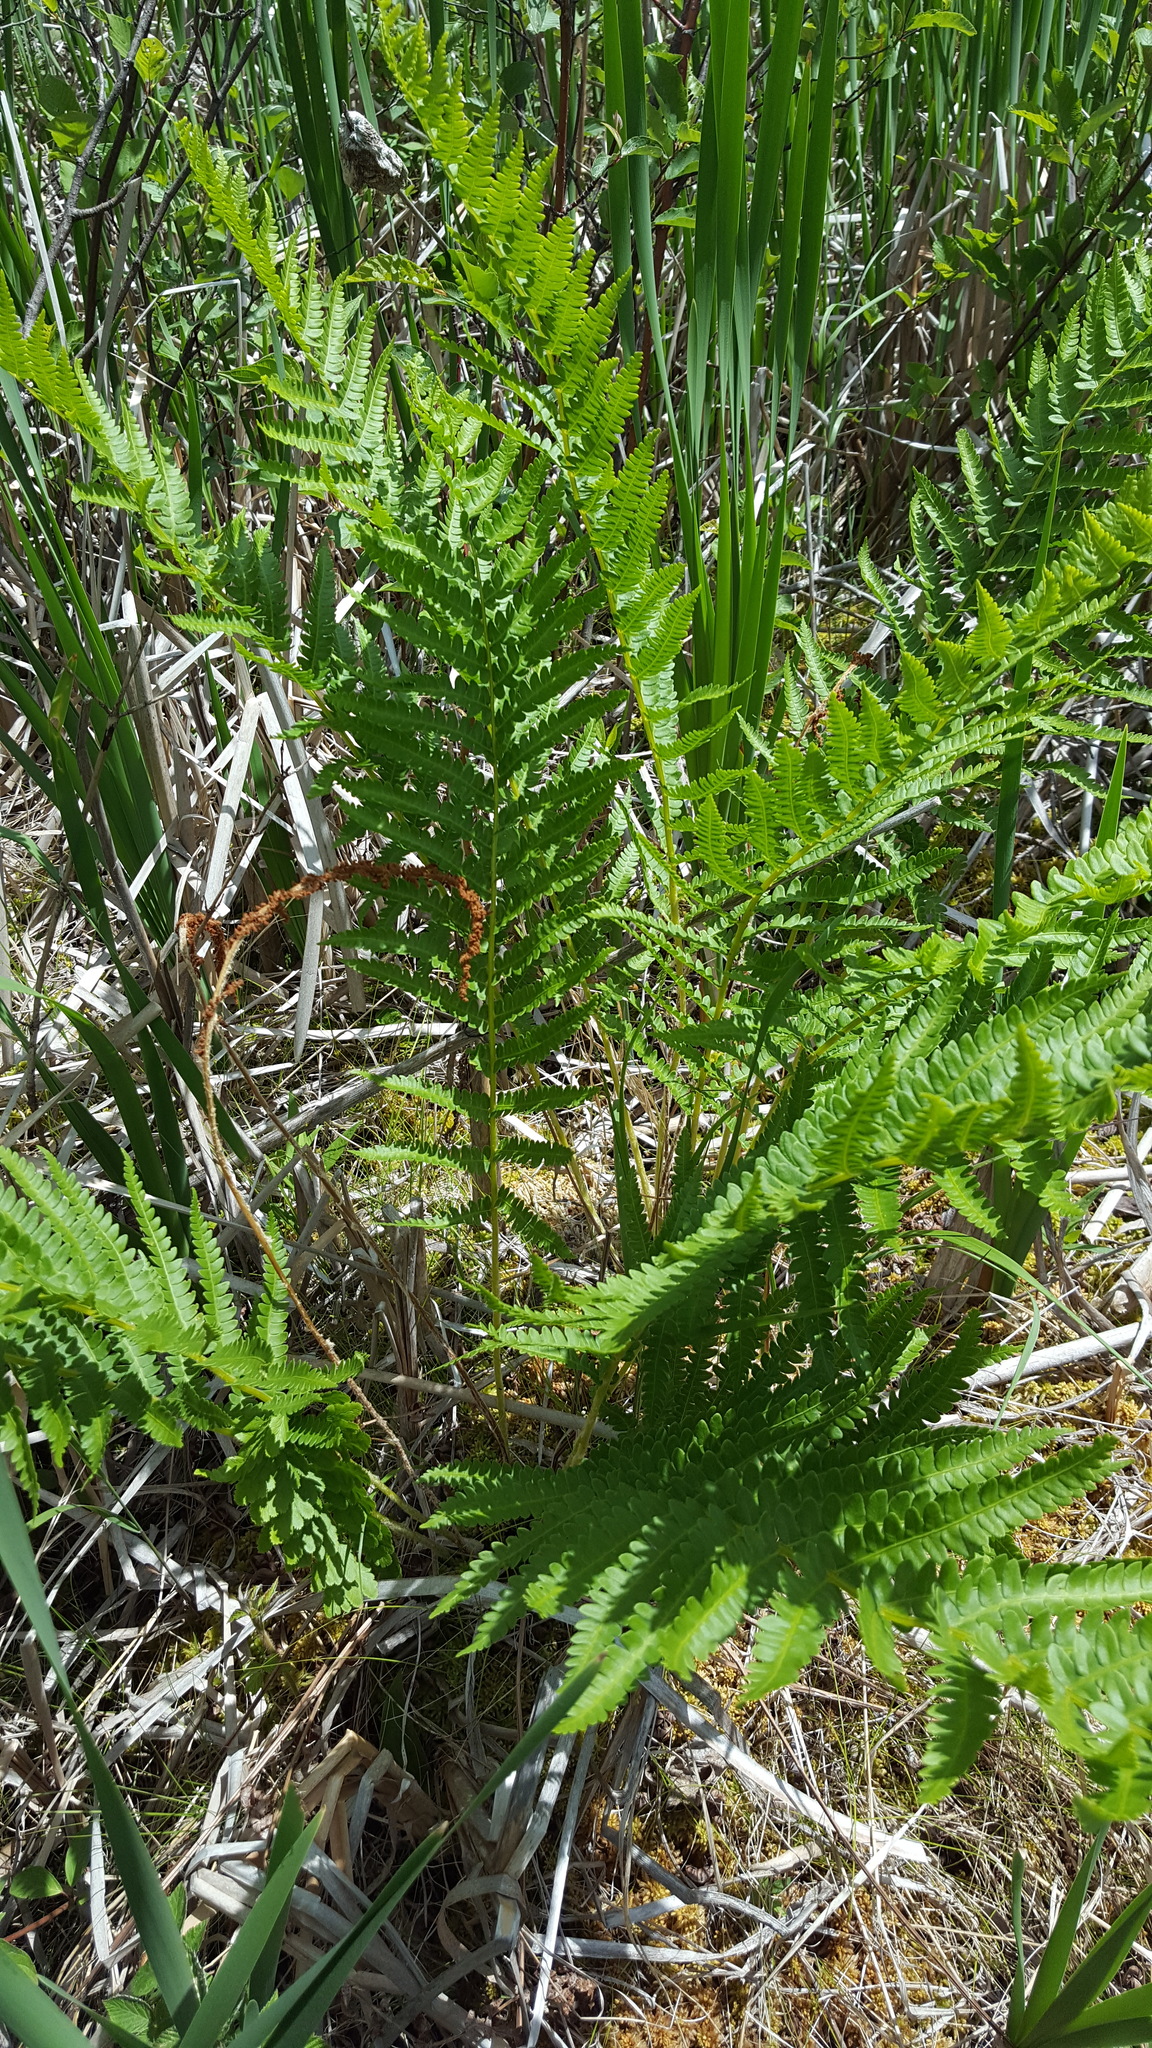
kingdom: Plantae
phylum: Tracheophyta
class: Polypodiopsida
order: Osmundales
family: Osmundaceae
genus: Osmundastrum
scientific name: Osmundastrum cinnamomeum
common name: Cinnamon fern
